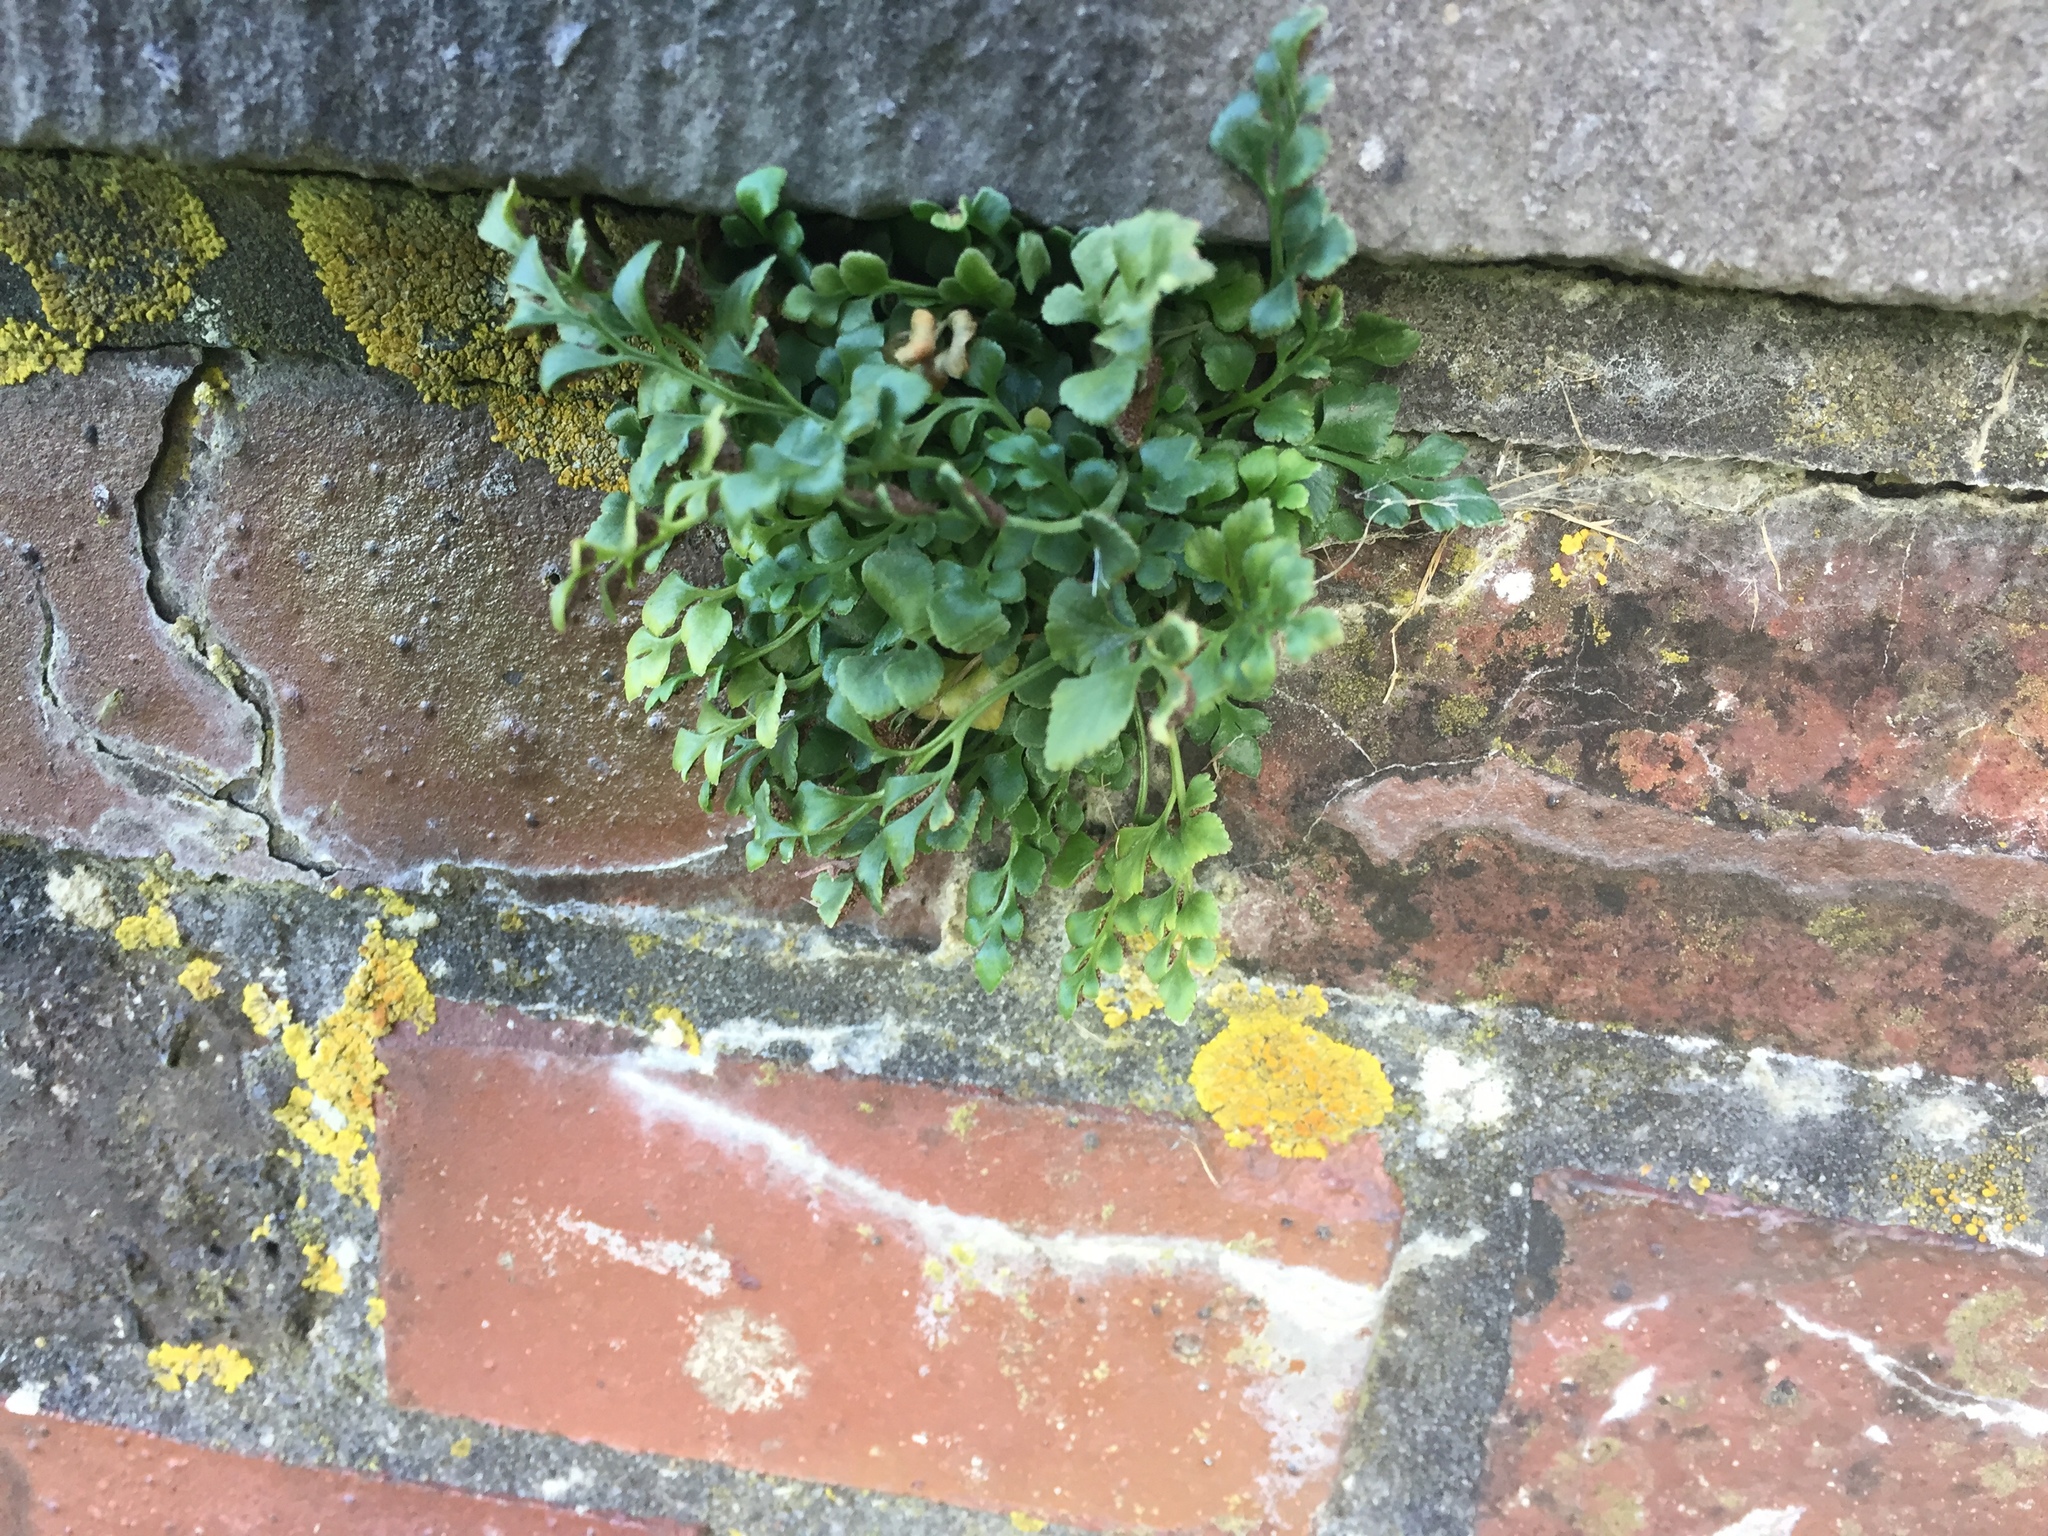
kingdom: Plantae
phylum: Tracheophyta
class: Polypodiopsida
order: Polypodiales
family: Aspleniaceae
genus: Asplenium
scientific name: Asplenium ruta-muraria
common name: Wall-rue
